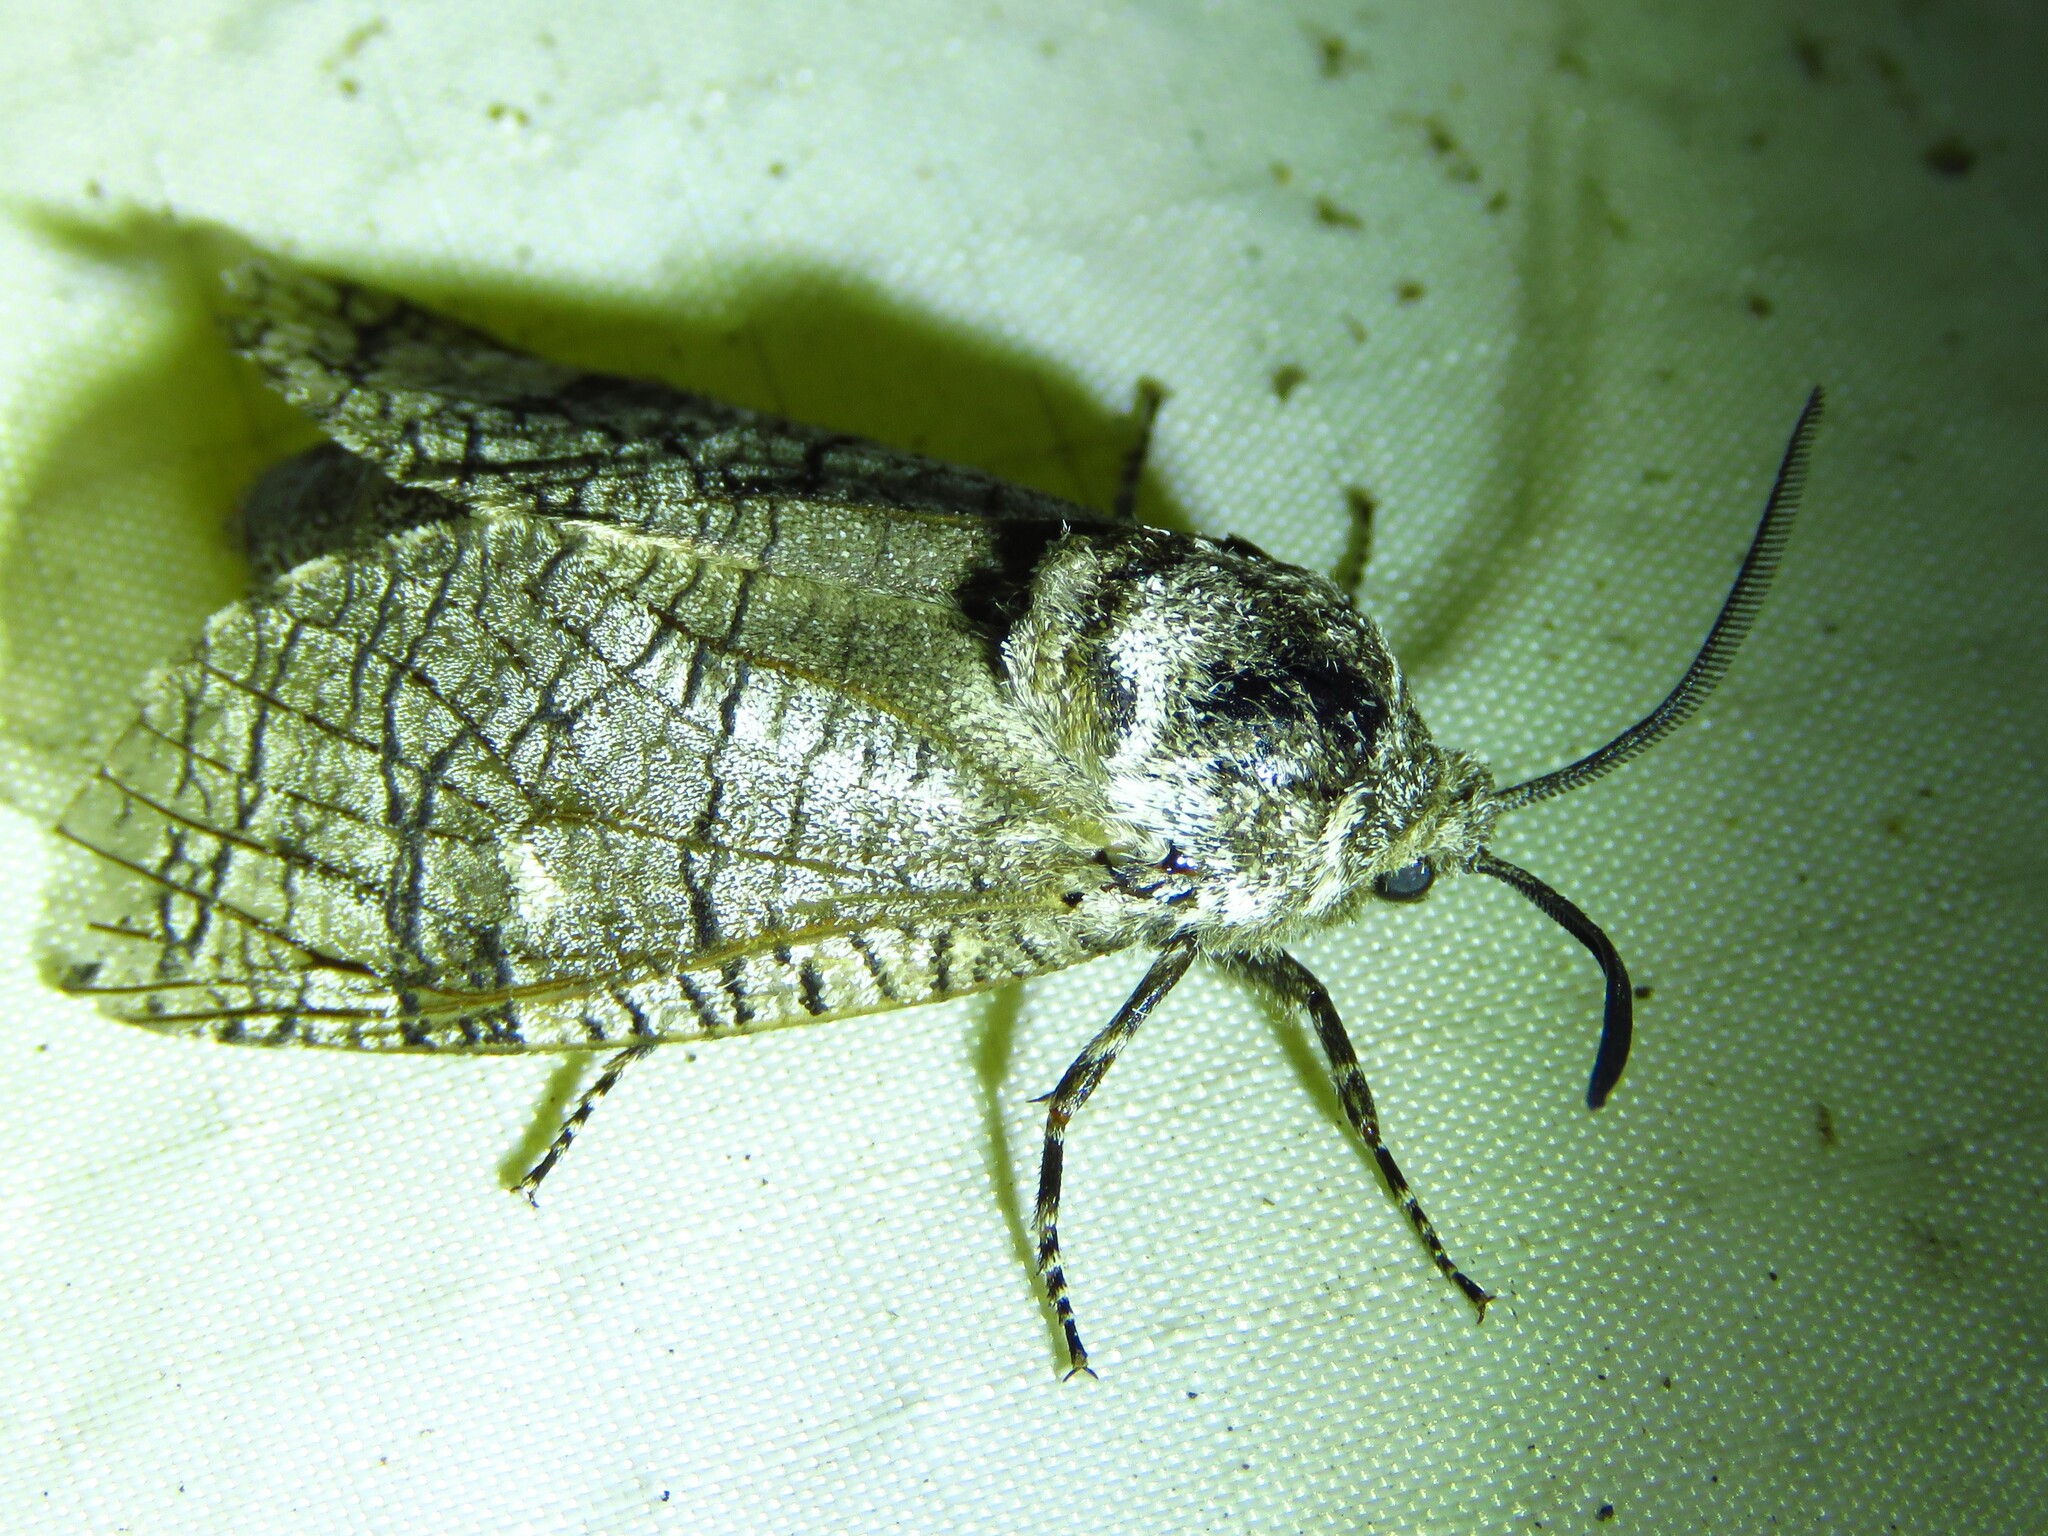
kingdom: Animalia
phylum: Arthropoda
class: Insecta
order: Lepidoptera
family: Cossidae
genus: Prionoxystus
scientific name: Prionoxystus macmurtrei
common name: Little carpenterworm
